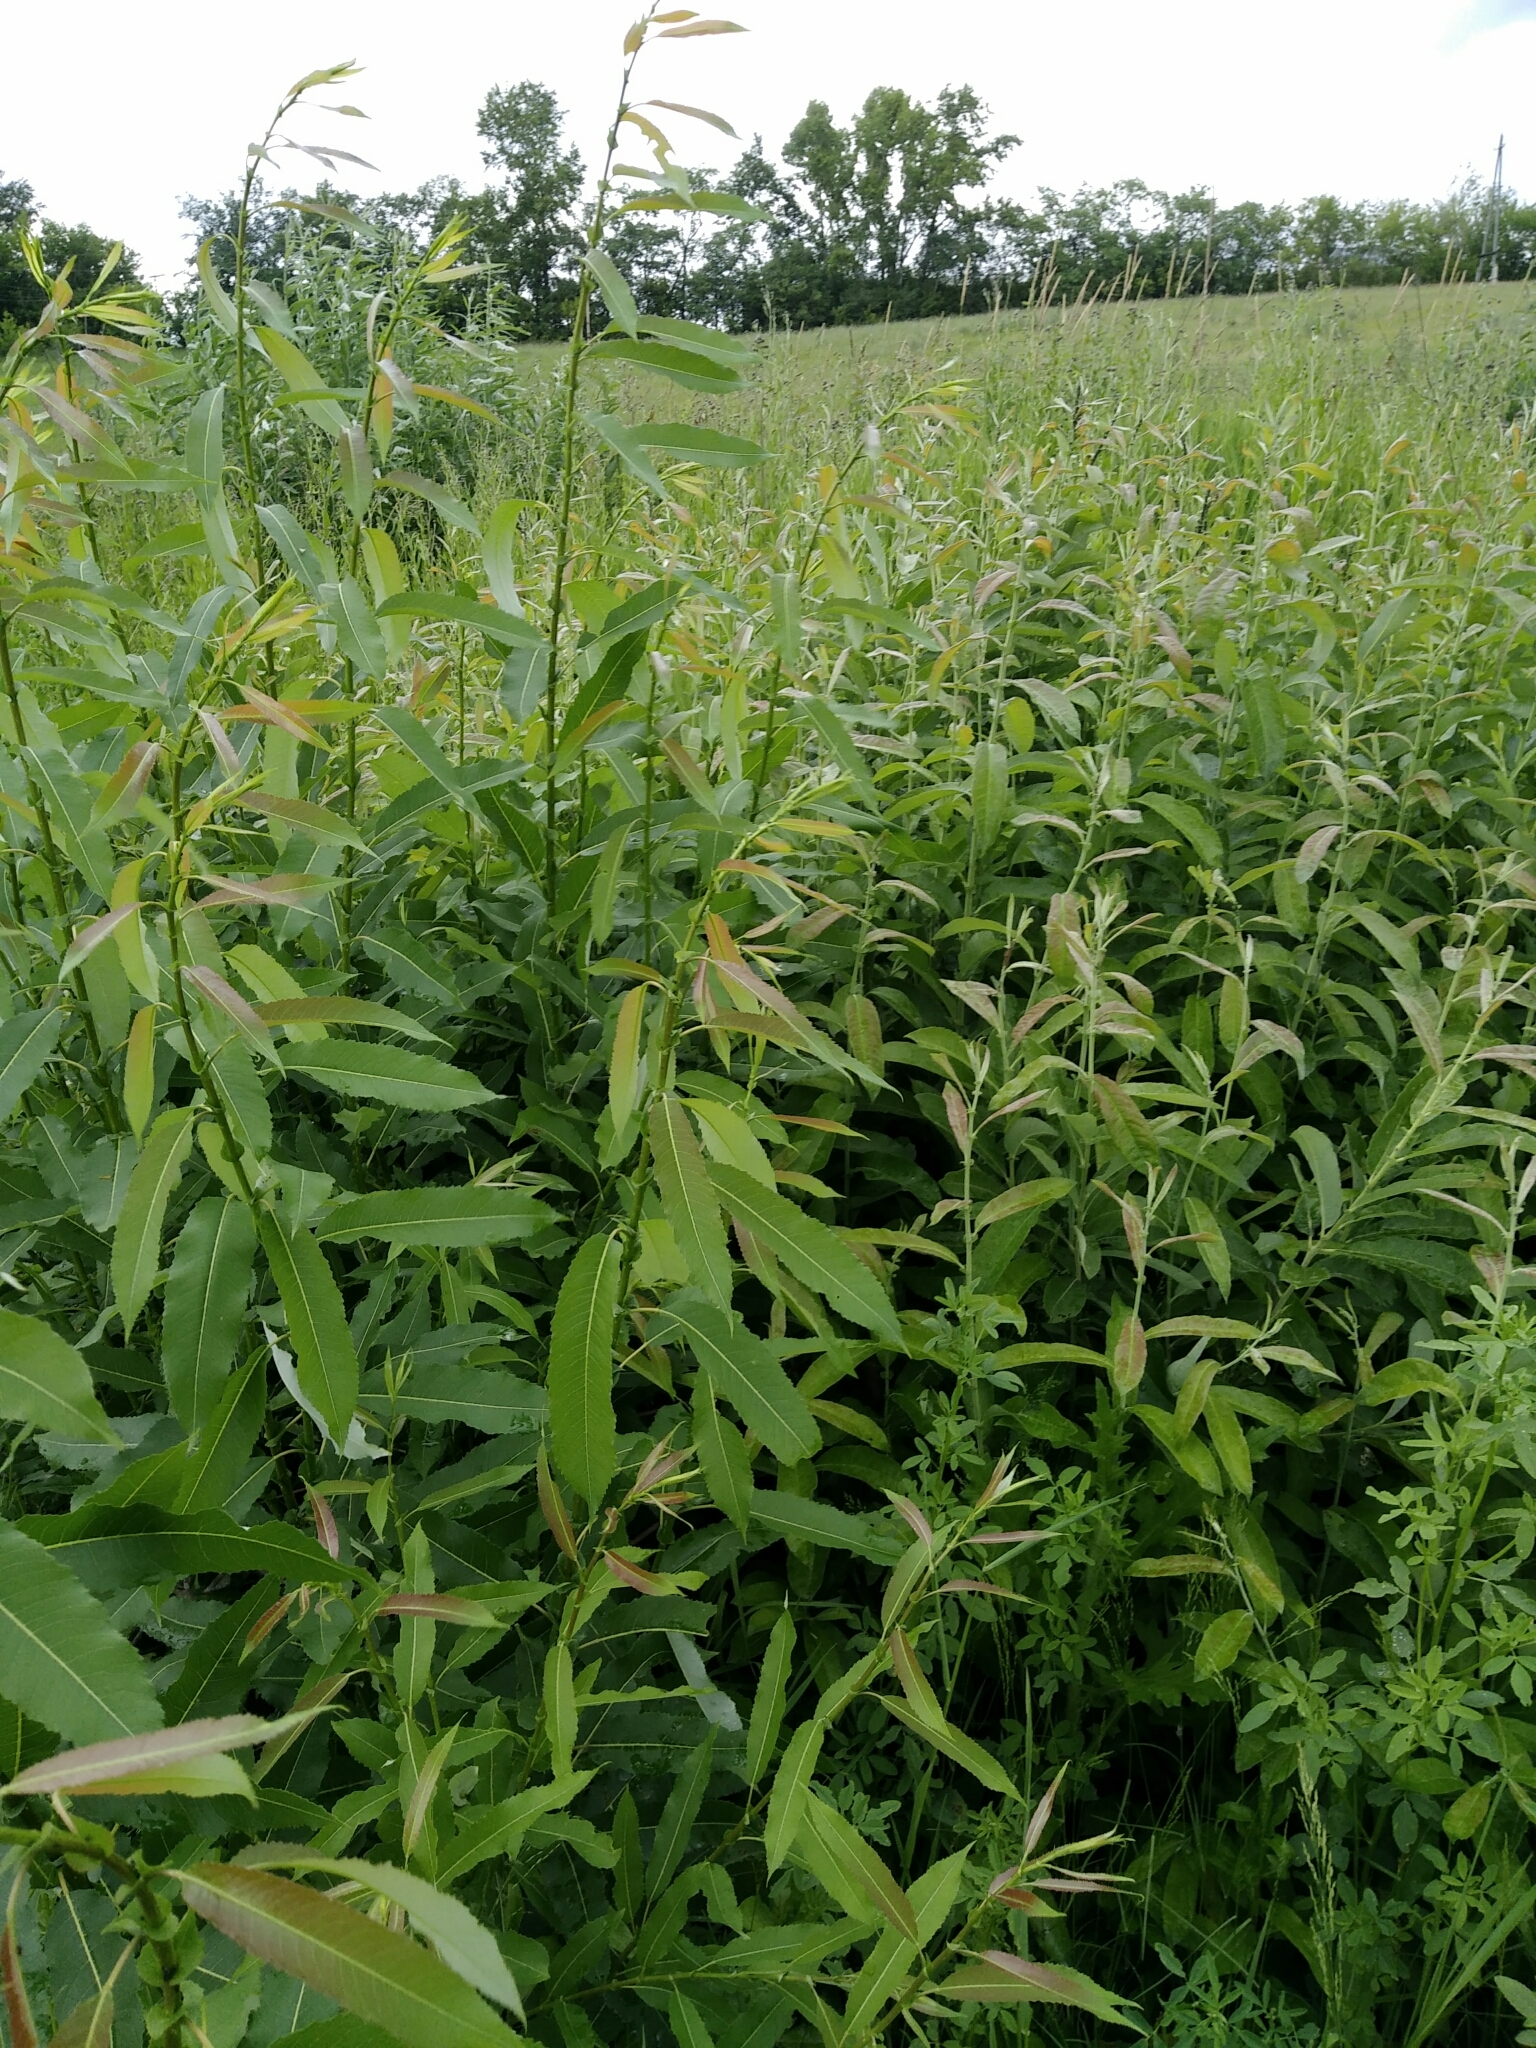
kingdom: Plantae
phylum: Tracheophyta
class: Magnoliopsida
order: Malpighiales
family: Salicaceae
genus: Salix
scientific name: Salix triandra
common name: Almond willow
